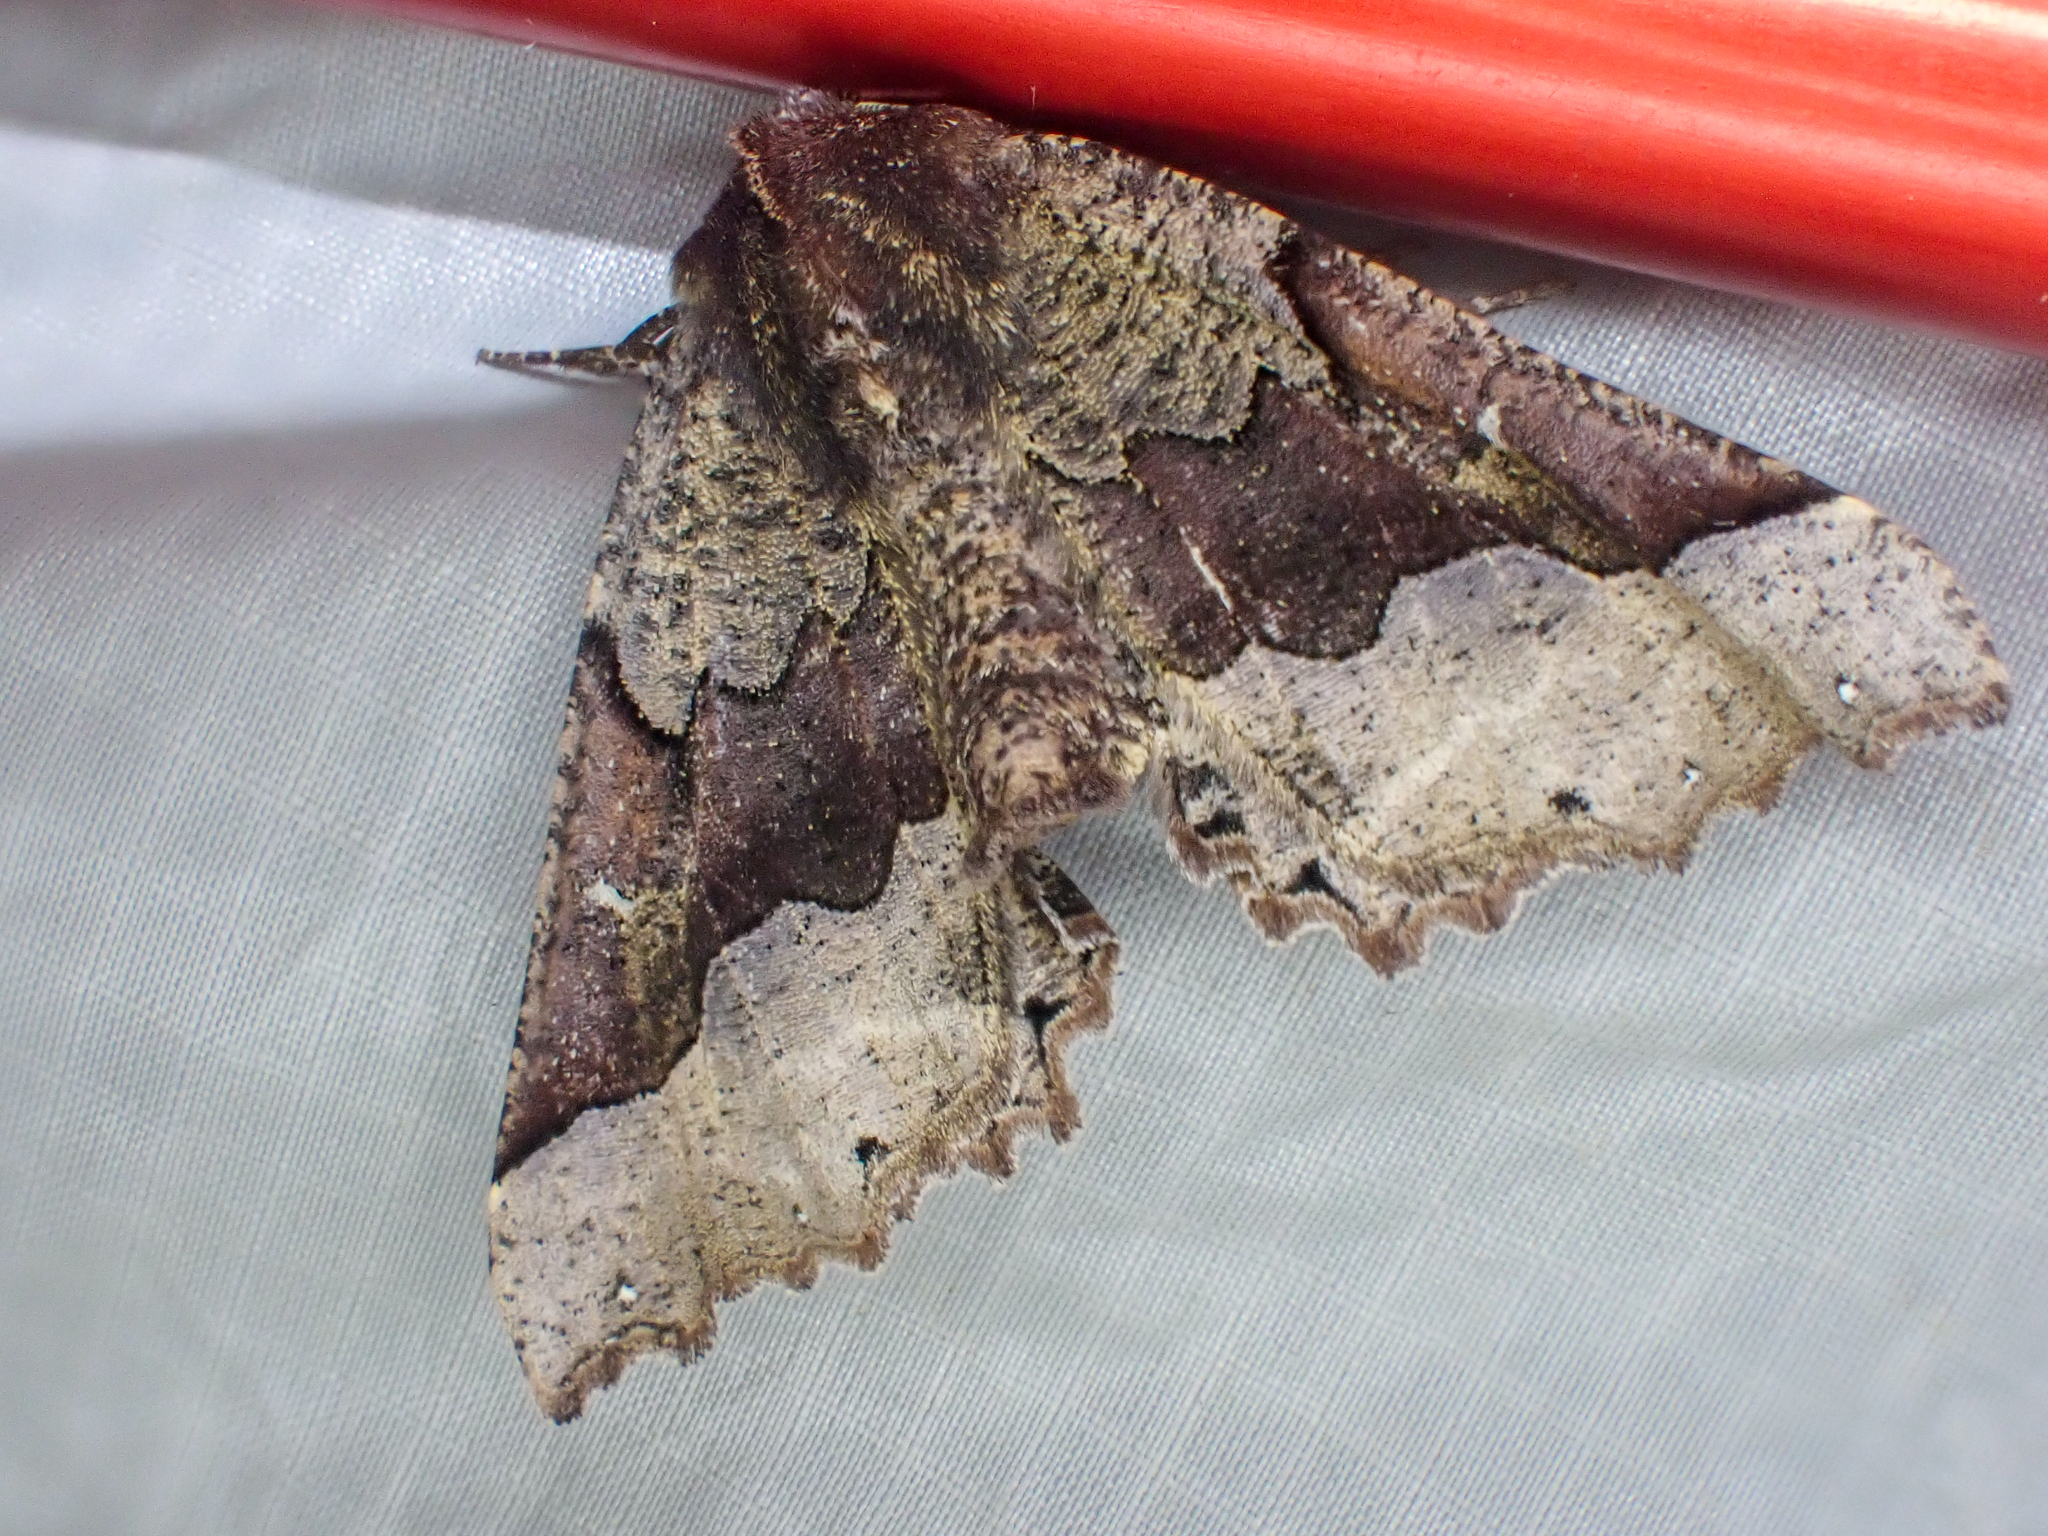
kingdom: Animalia
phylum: Arthropoda
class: Insecta
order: Lepidoptera
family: Geometridae
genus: Pero
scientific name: Pero behrensaria
